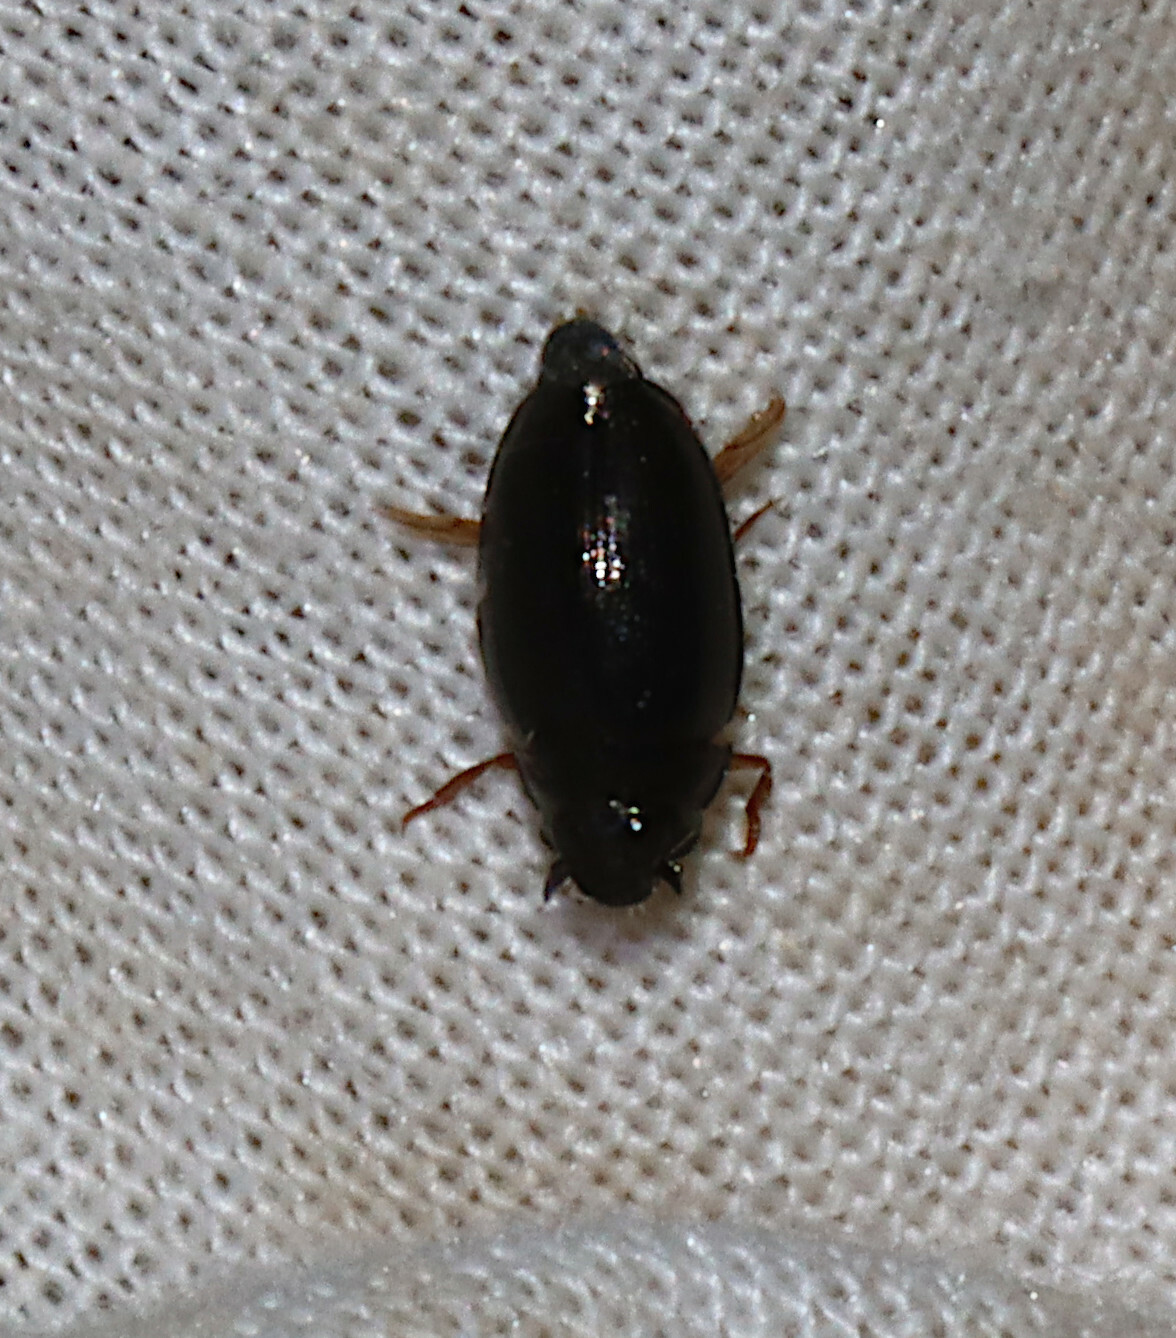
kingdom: Animalia
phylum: Arthropoda
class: Insecta
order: Coleoptera
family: Gyrinidae
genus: Gyrinus
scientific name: Gyrinus
